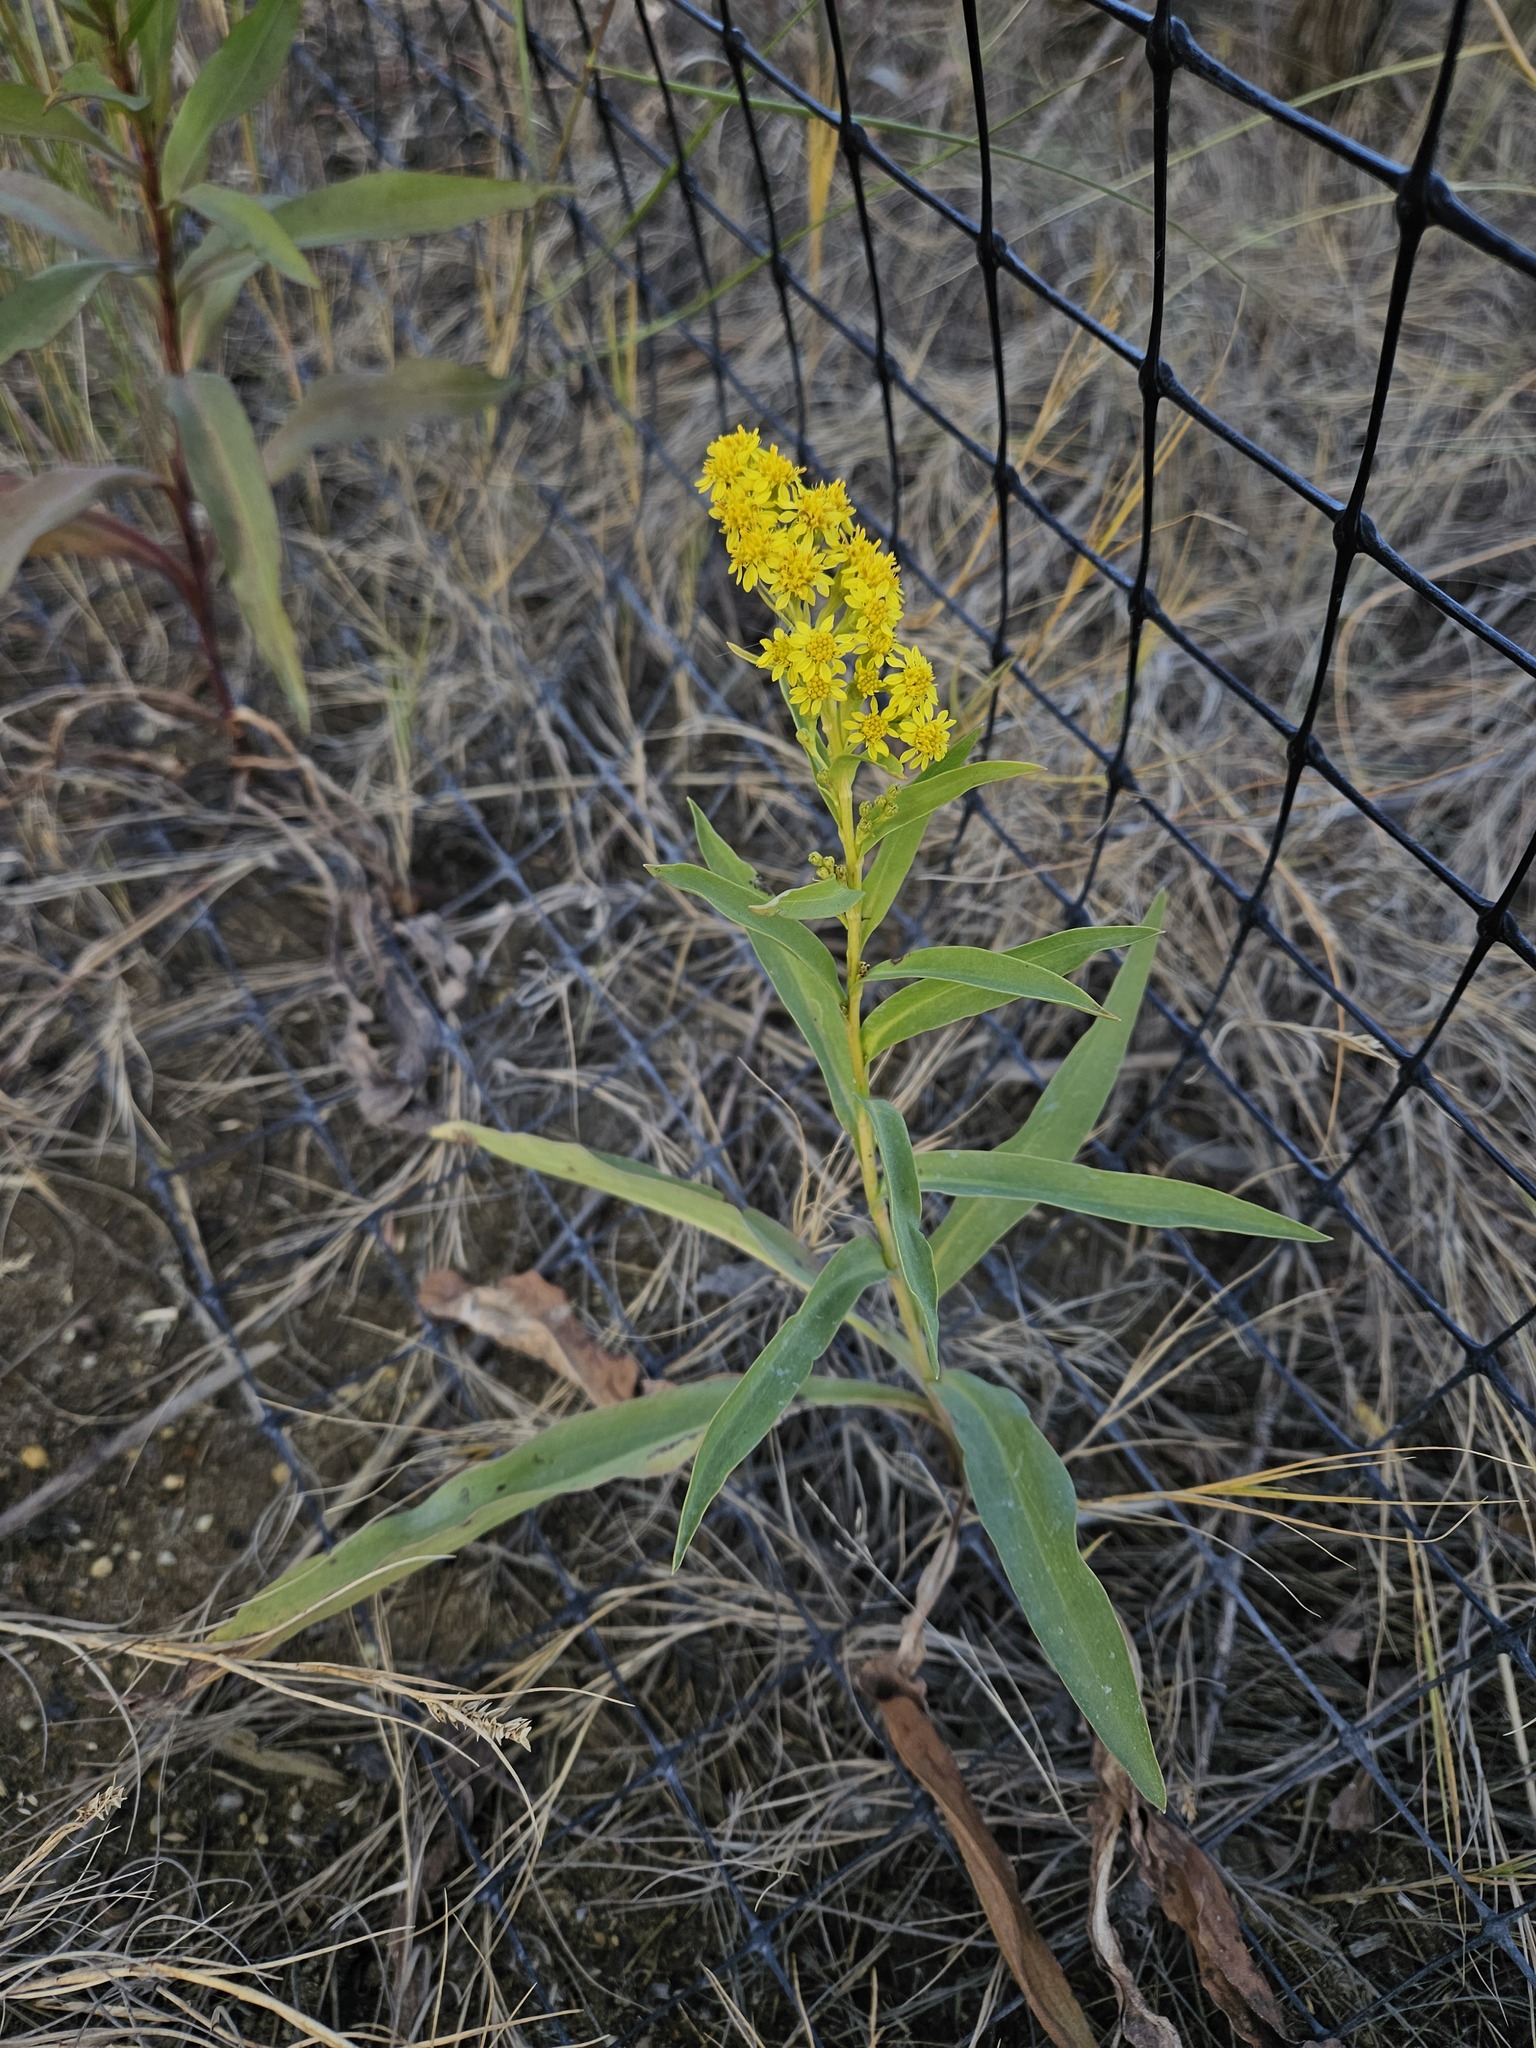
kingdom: Plantae
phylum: Tracheophyta
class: Magnoliopsida
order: Asterales
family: Asteraceae
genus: Solidago
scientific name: Solidago sempervirens
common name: Salt-marsh goldenrod
